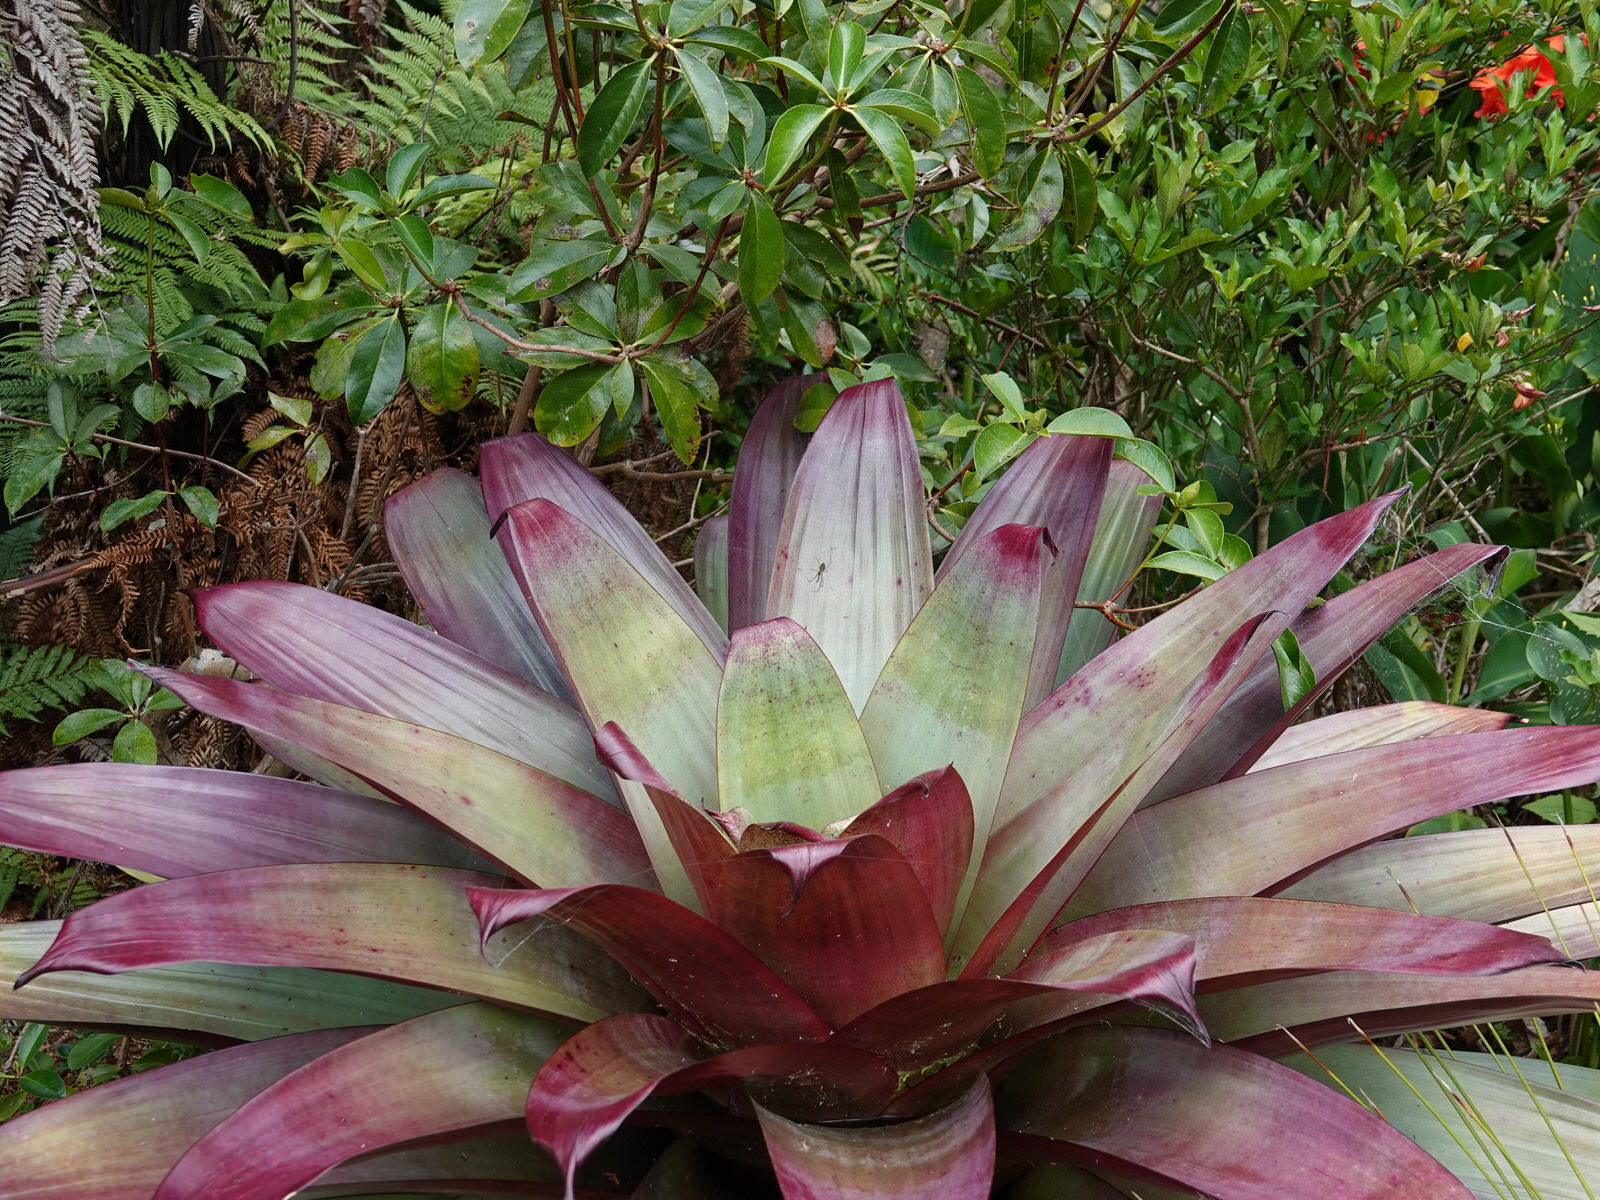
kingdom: Animalia
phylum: Arthropoda
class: Arachnida
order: Araneae
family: Tetragnathidae
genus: Leucauge
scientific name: Leucauge dromedaria
